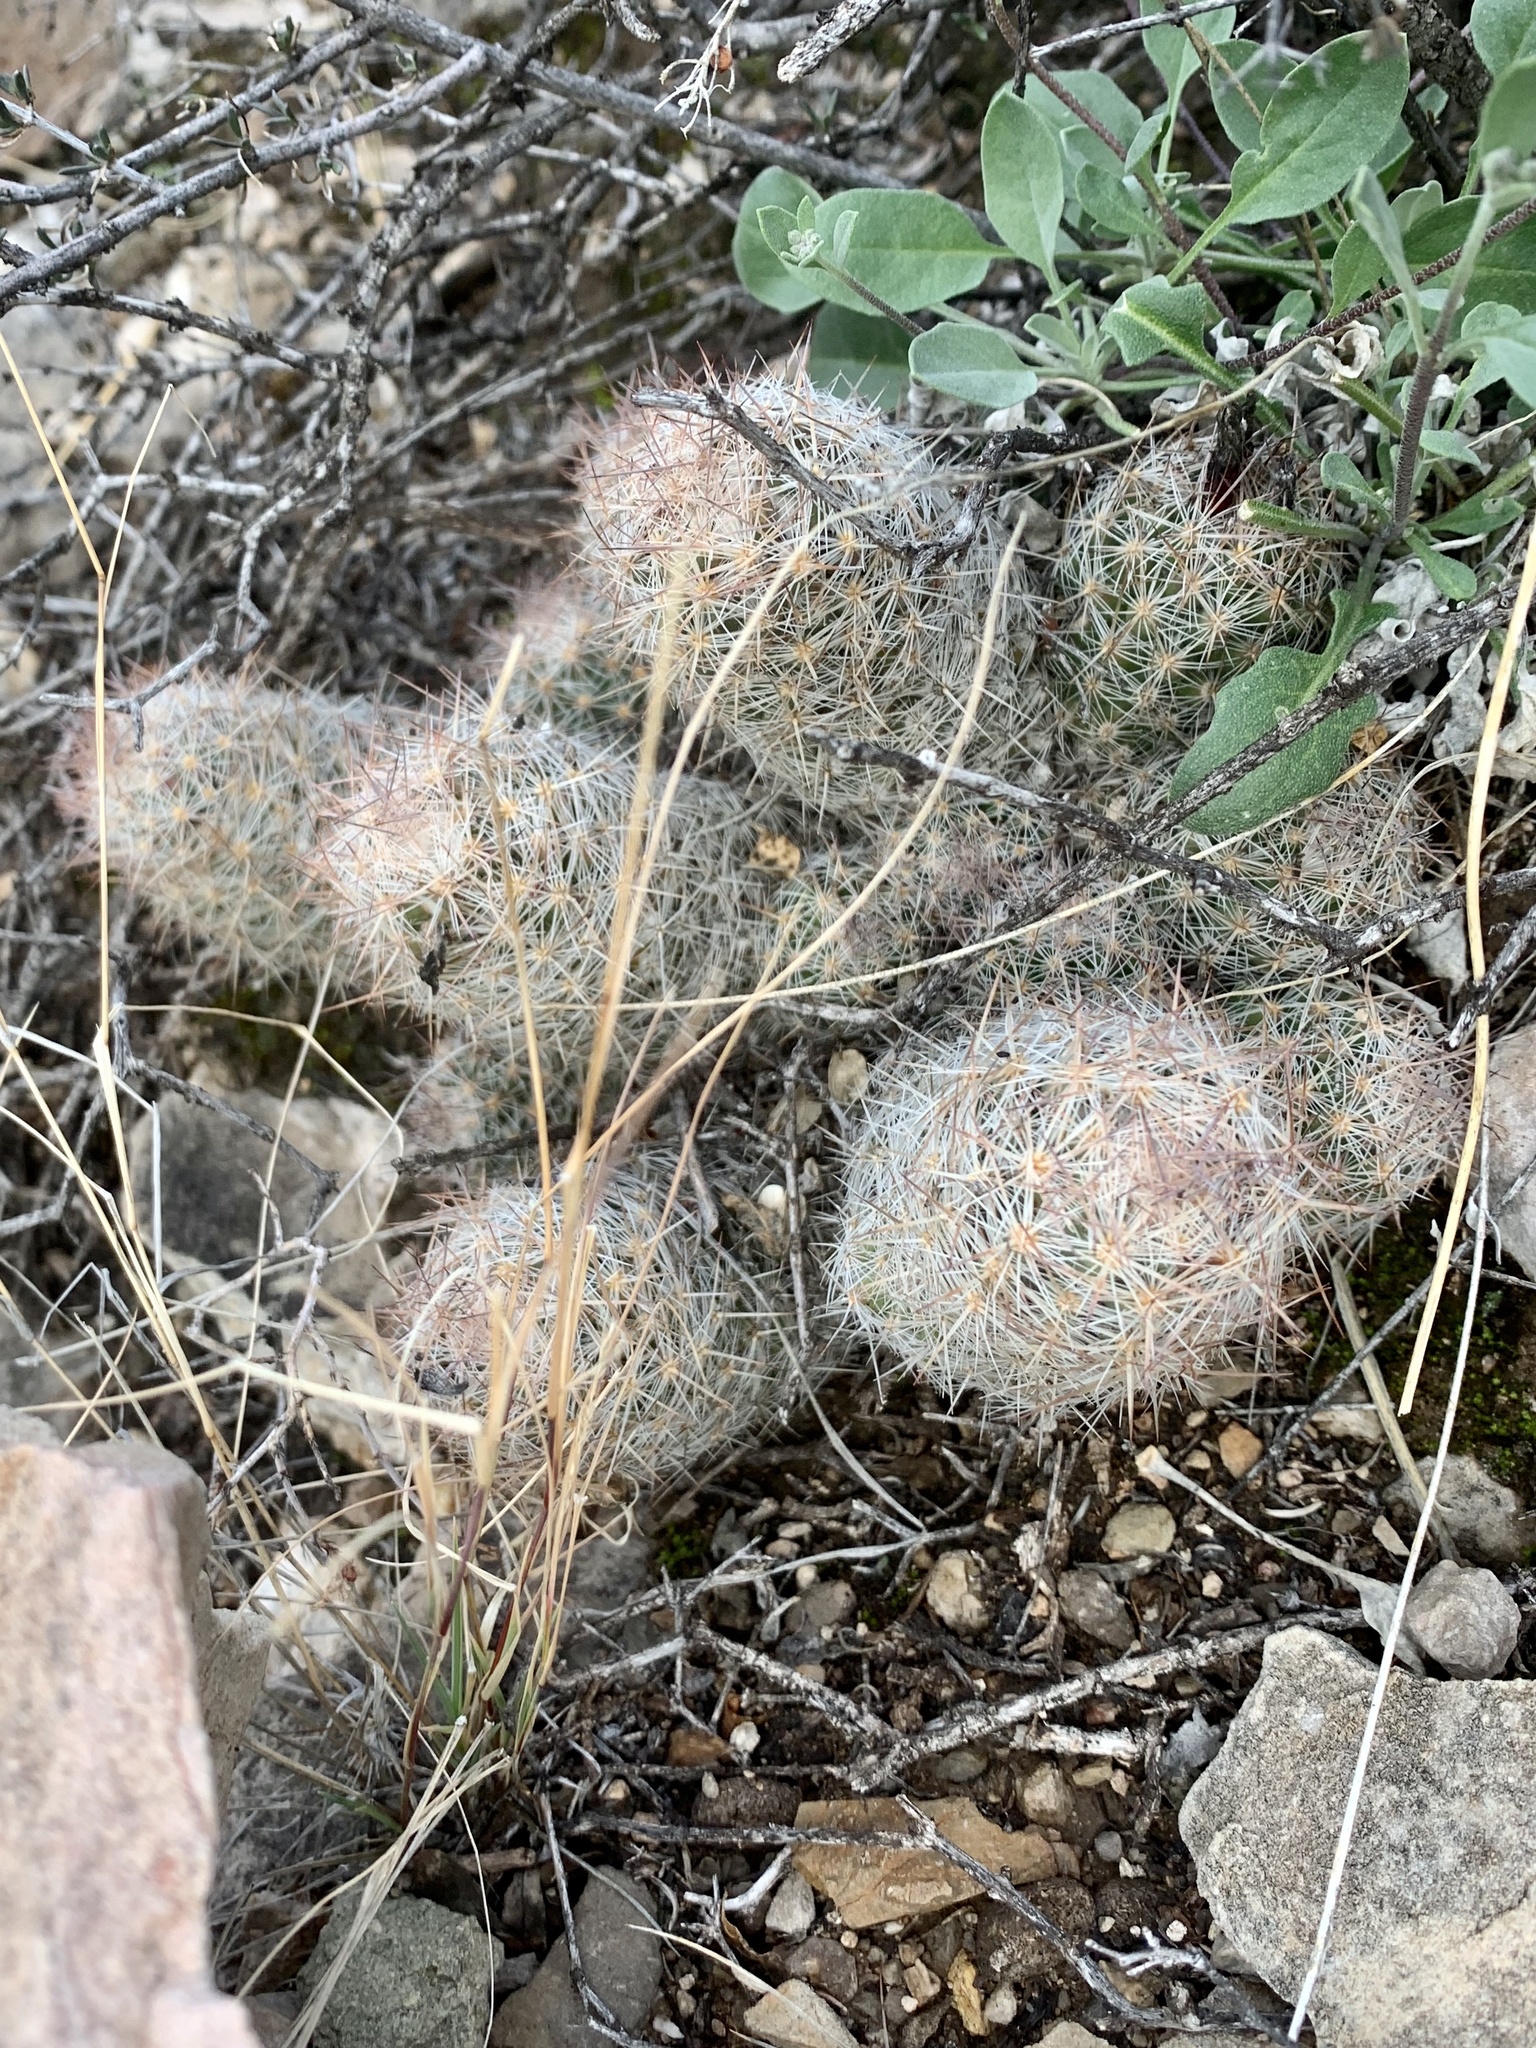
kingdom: Plantae
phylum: Tracheophyta
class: Magnoliopsida
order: Caryophyllales
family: Cactaceae
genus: Pelecyphora
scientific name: Pelecyphora tuberculosa
